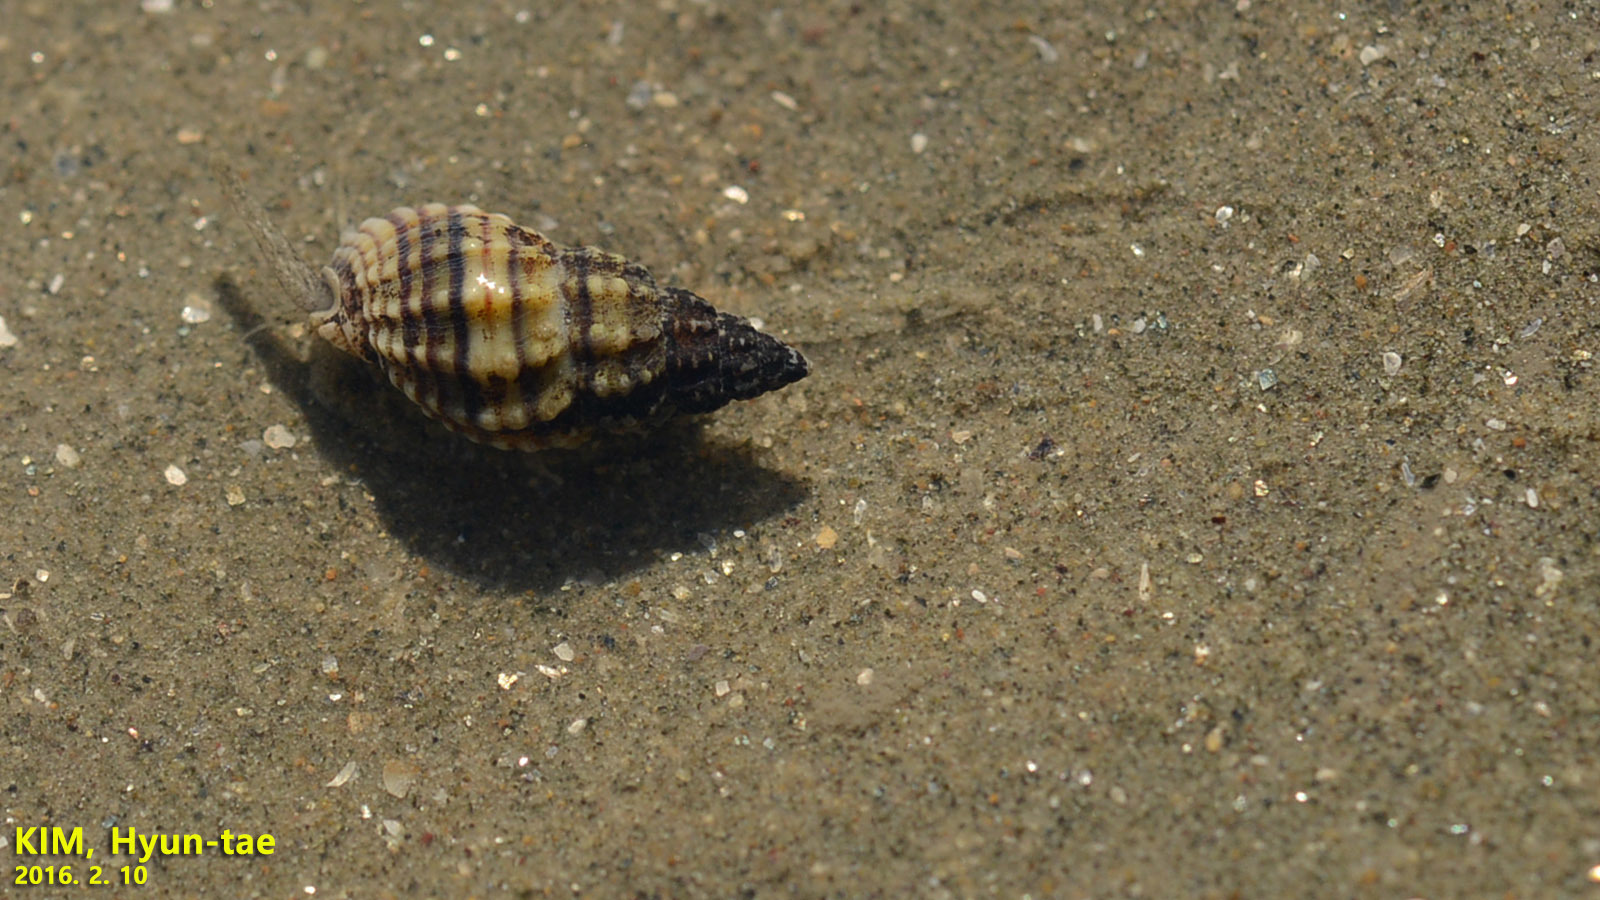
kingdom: Animalia
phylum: Mollusca
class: Gastropoda
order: Neogastropoda
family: Nassariidae
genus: Nassarius
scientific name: Nassarius festivus
